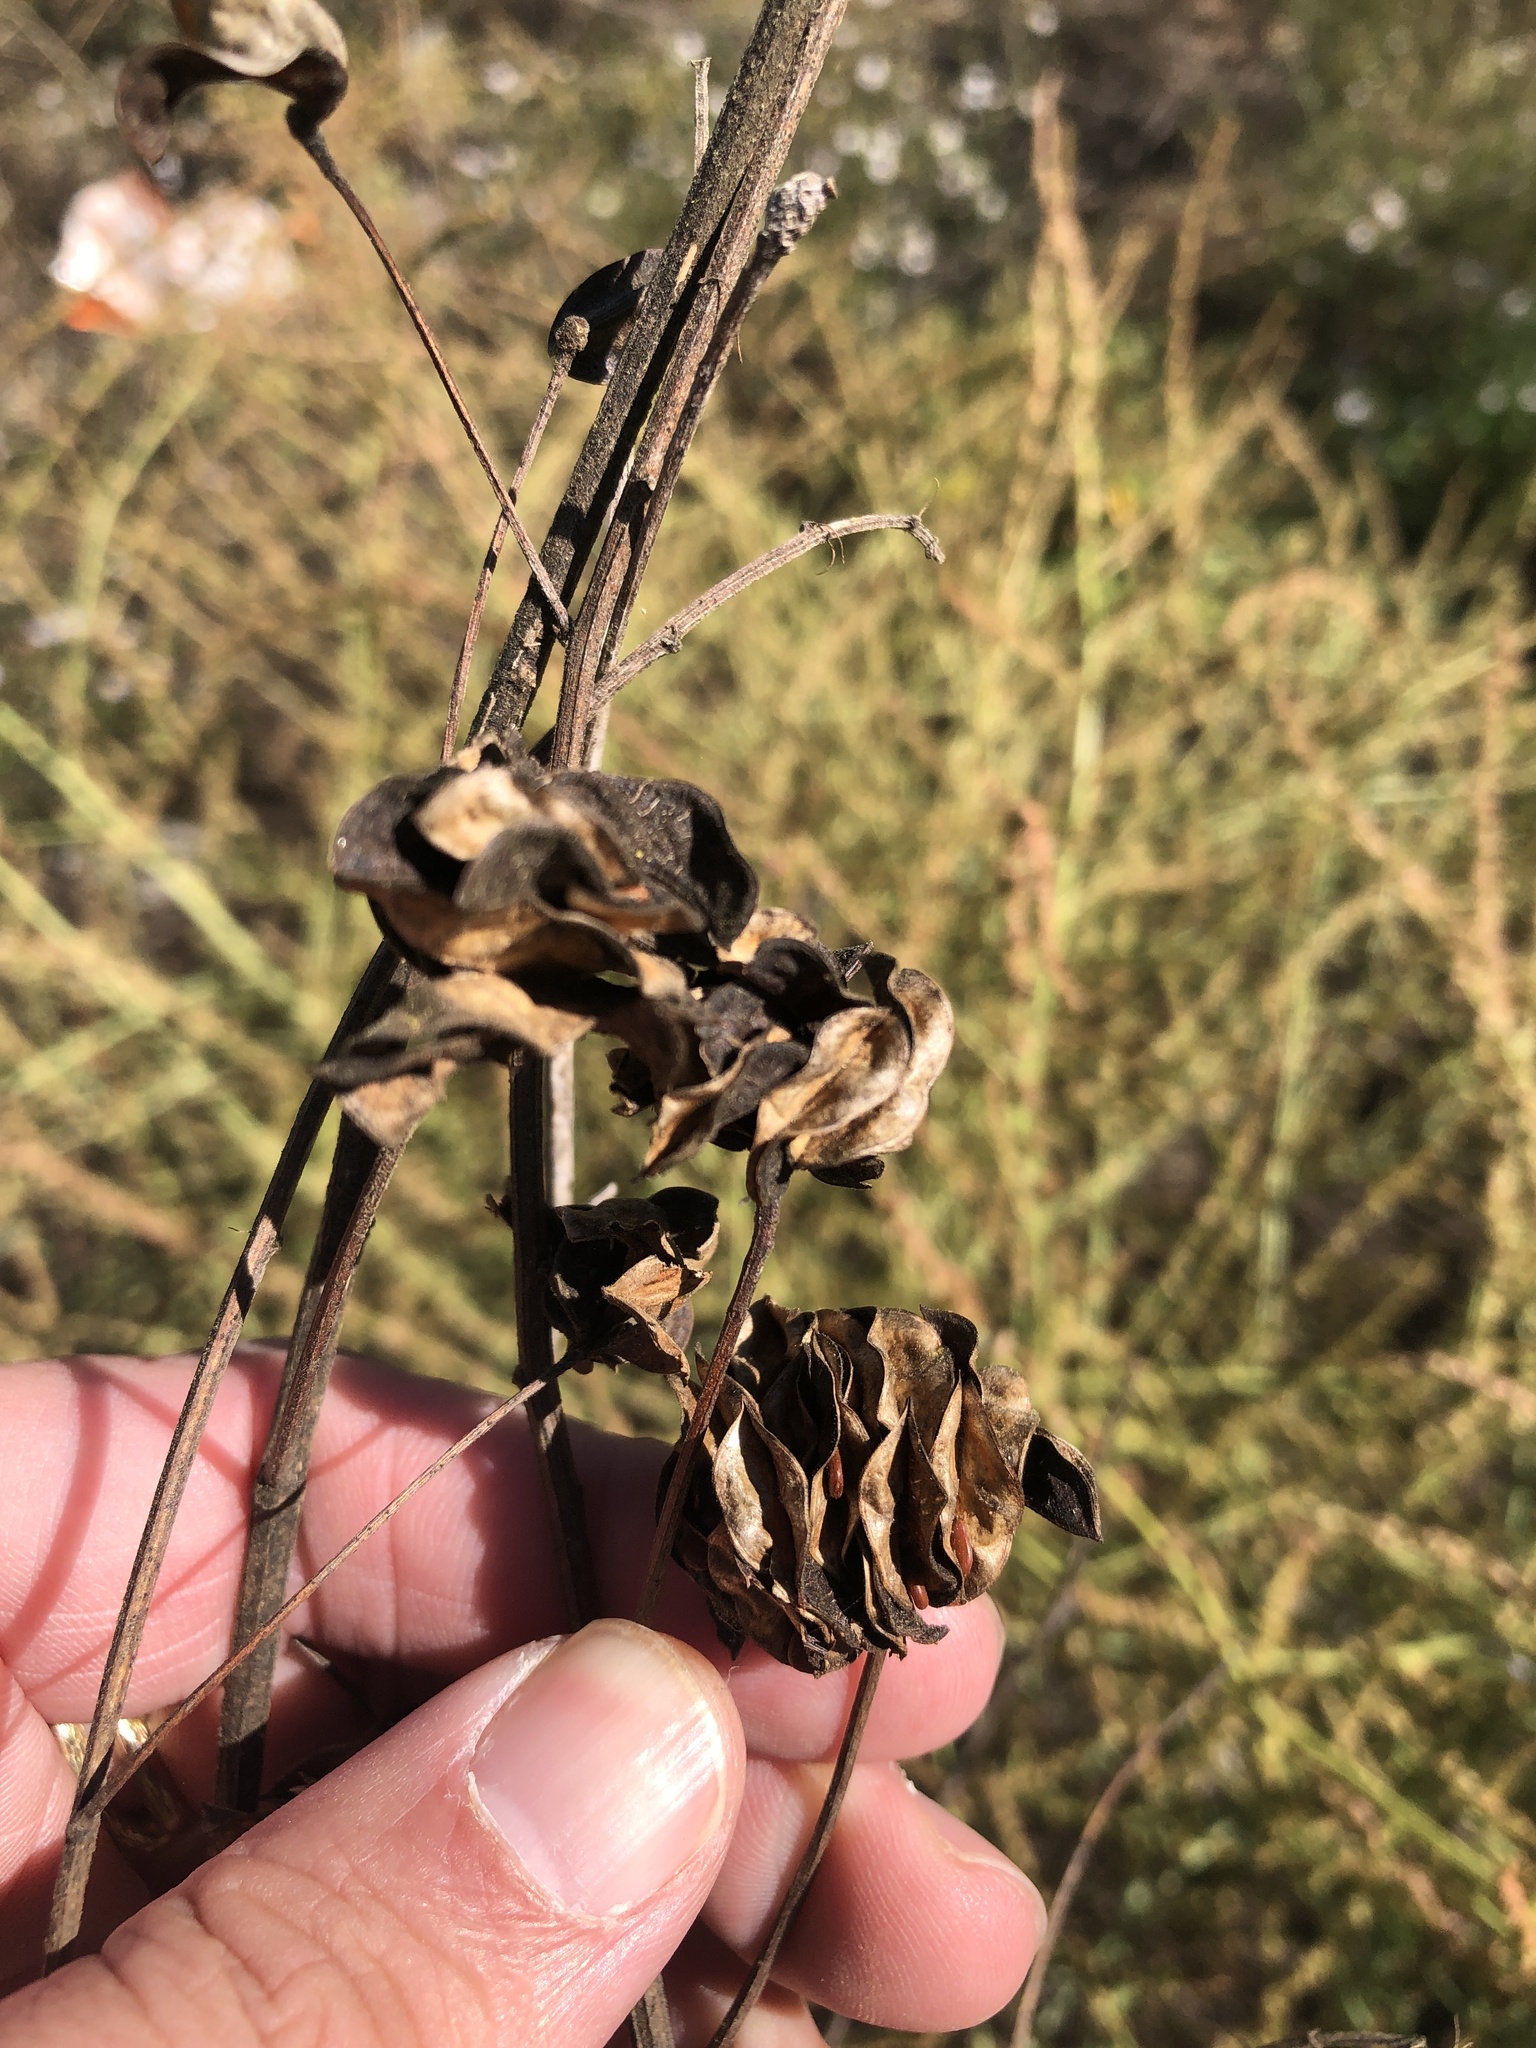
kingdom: Plantae
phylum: Tracheophyta
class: Magnoliopsida
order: Fabales
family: Fabaceae
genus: Desmanthus
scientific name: Desmanthus illinoensis
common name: Illinois bundle-flower
